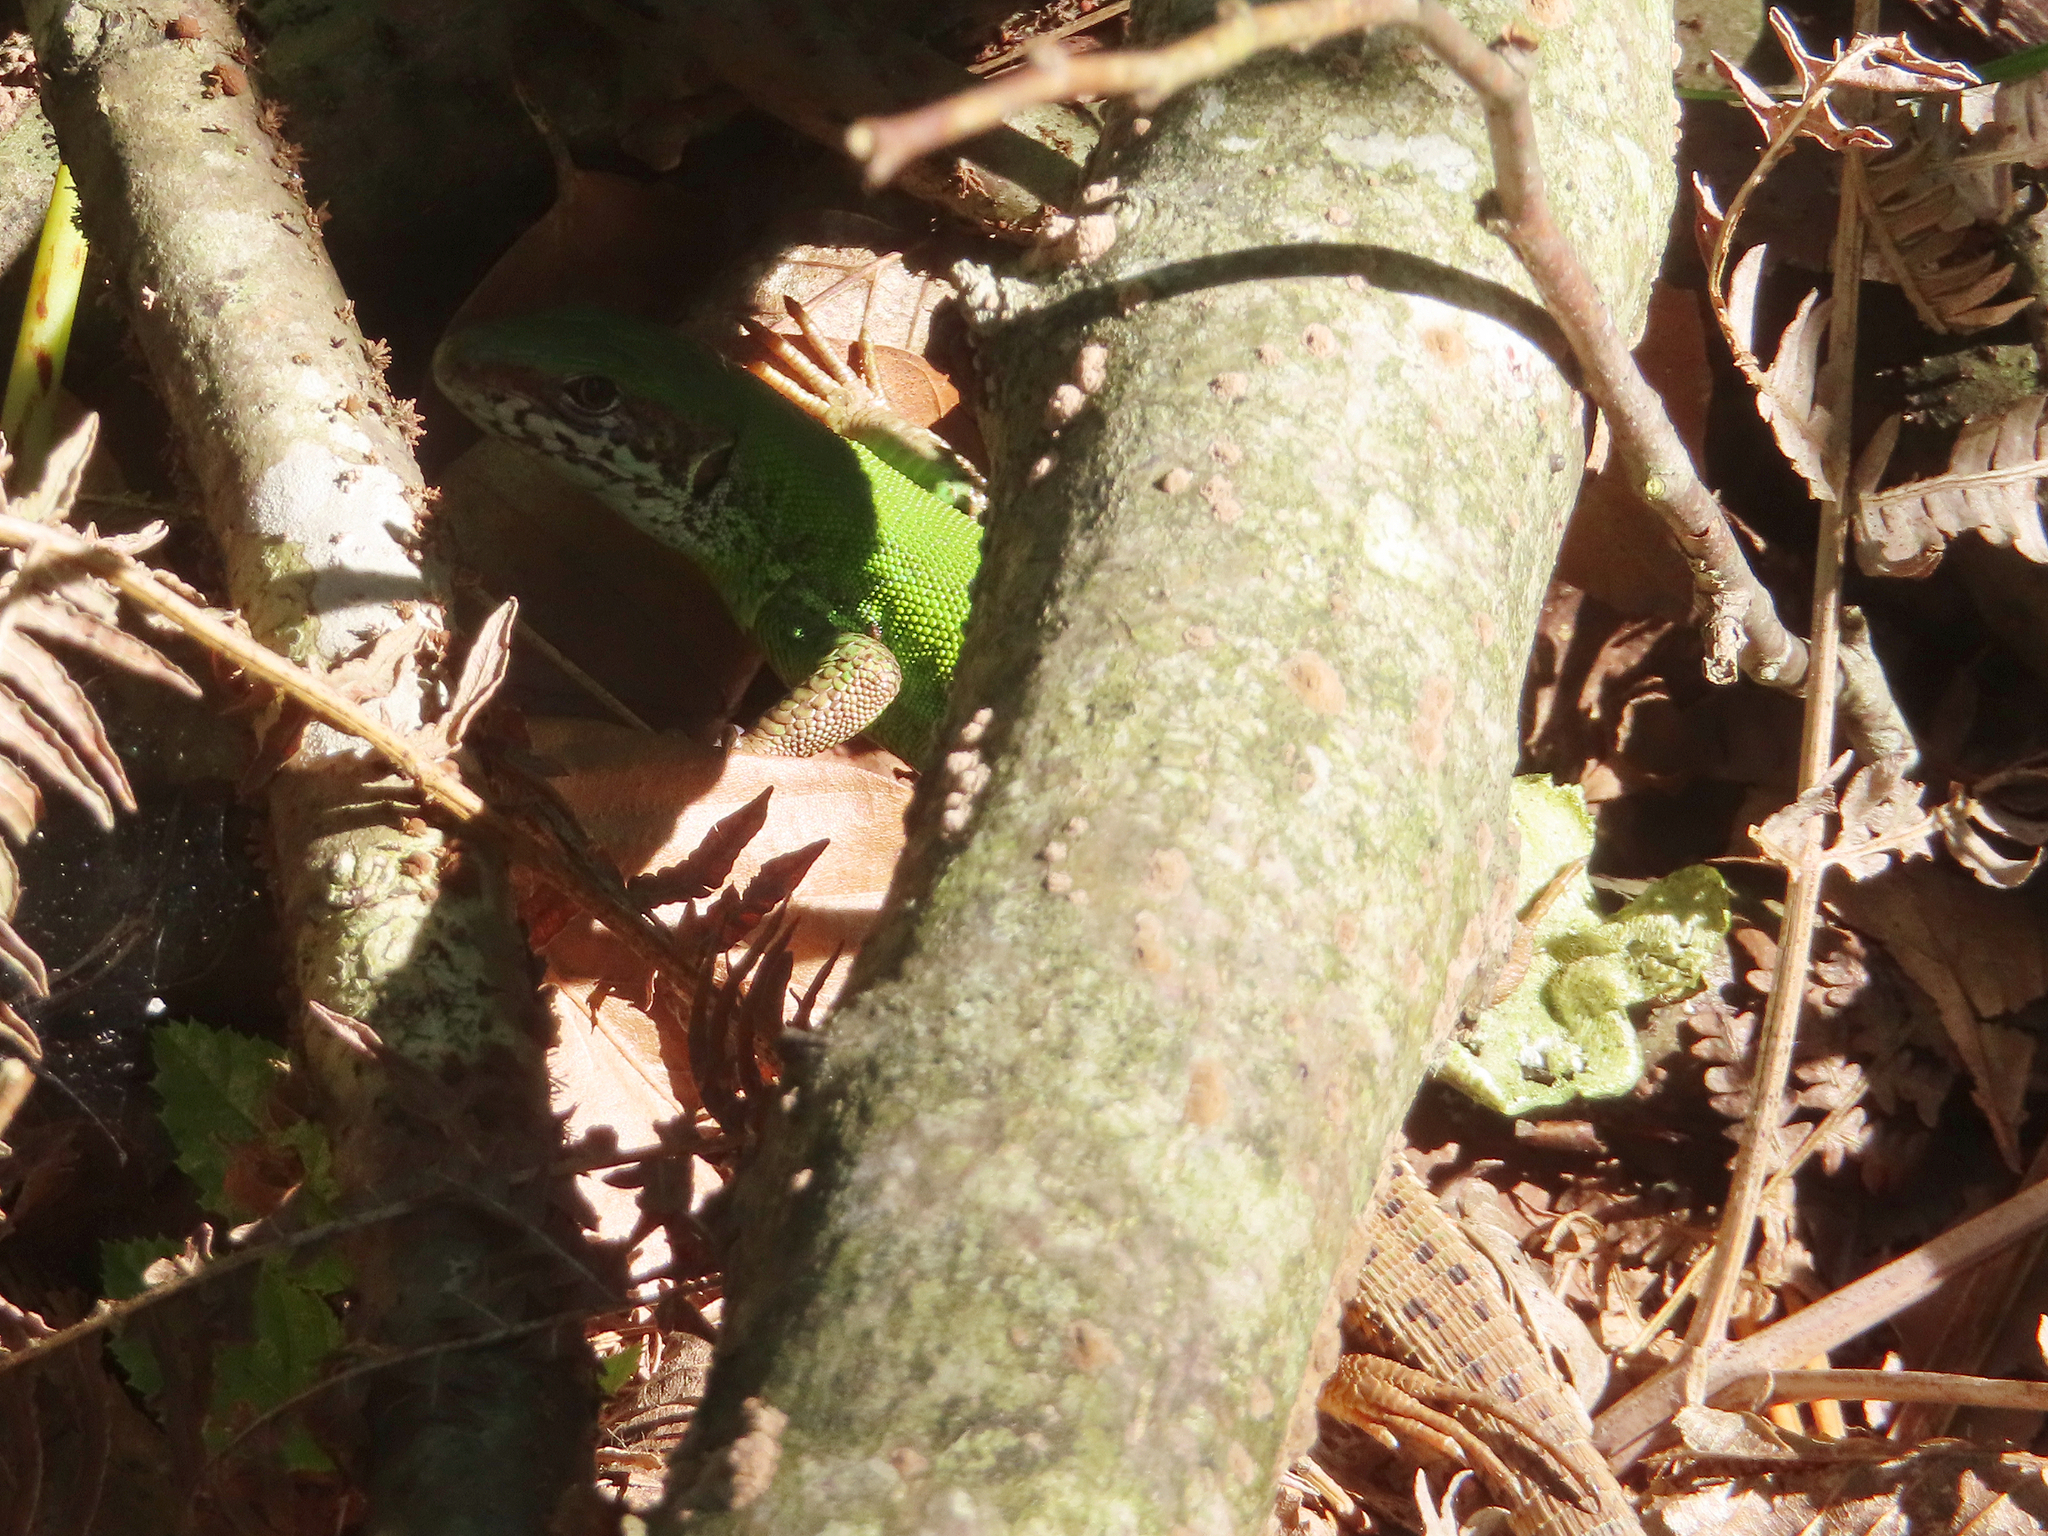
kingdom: Animalia
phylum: Chordata
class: Squamata
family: Lacertidae
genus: Lacerta
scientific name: Lacerta viridis
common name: European green lizard
